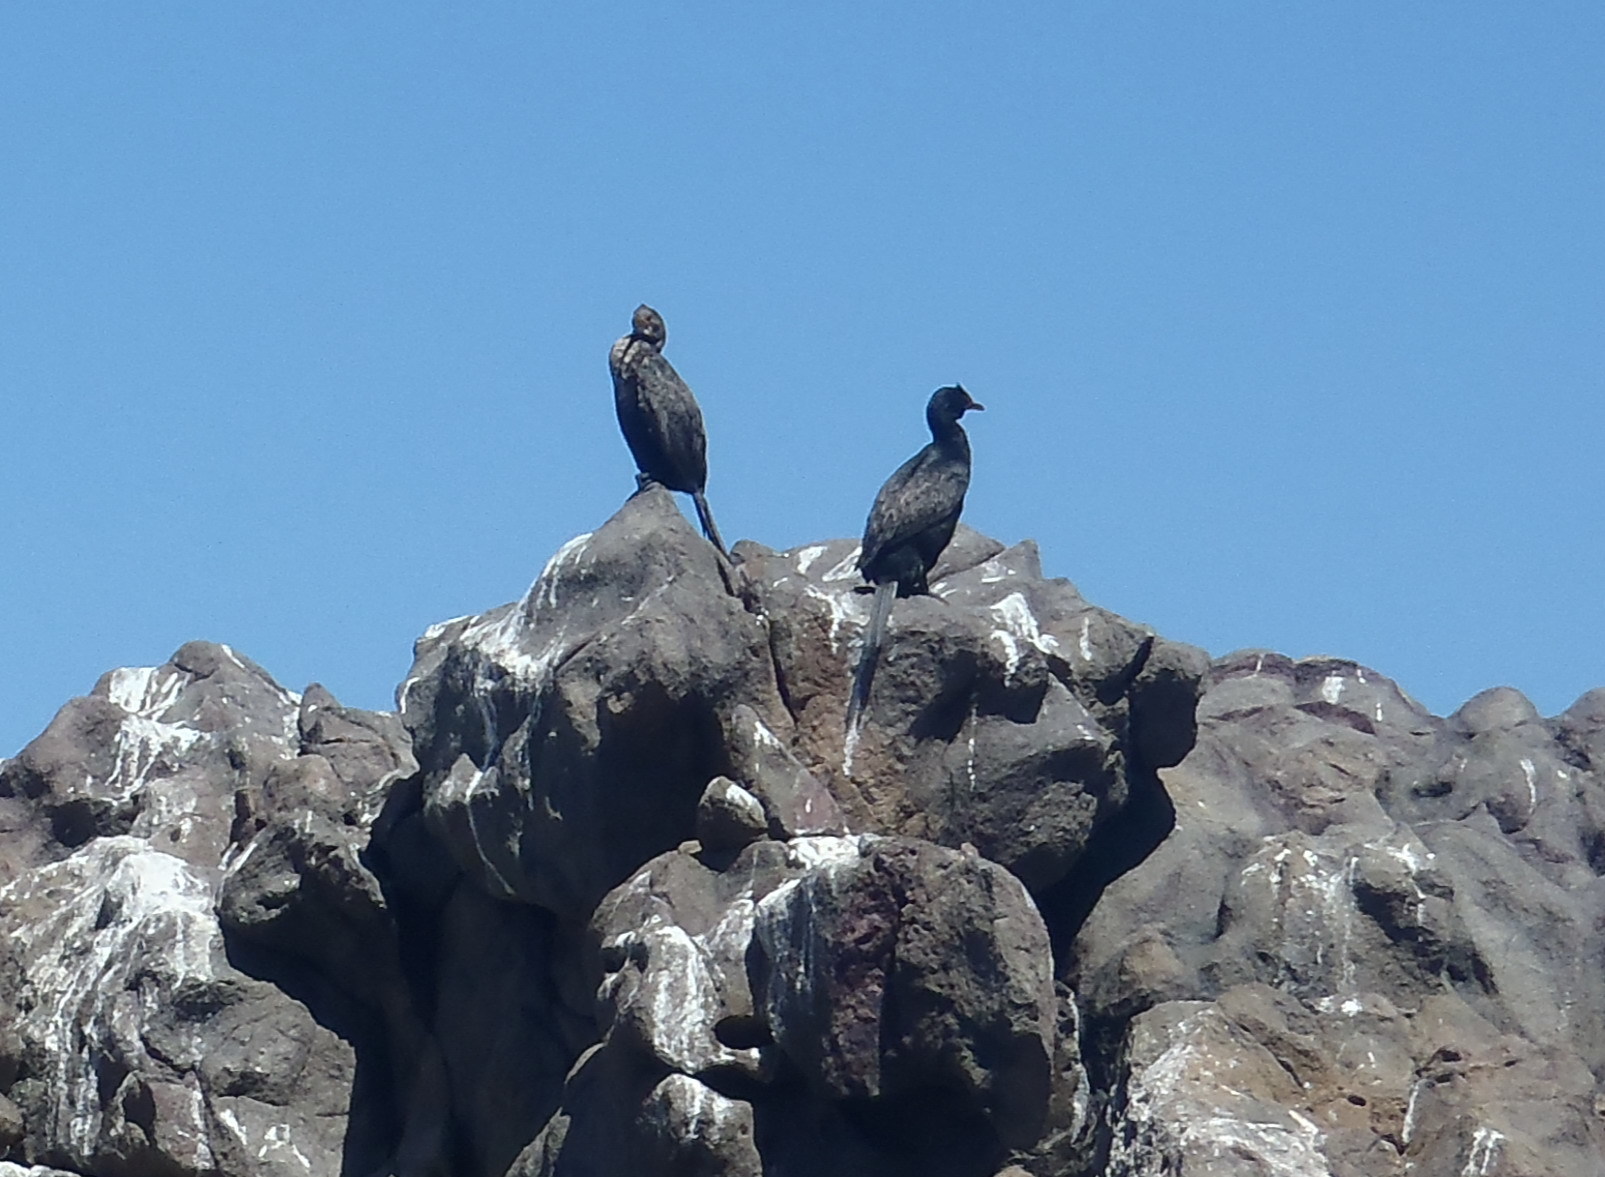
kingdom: Animalia
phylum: Chordata
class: Aves
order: Suliformes
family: Phalacrocoracidae
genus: Phalacrocorax
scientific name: Phalacrocorax neglectus
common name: Bank cormorant
